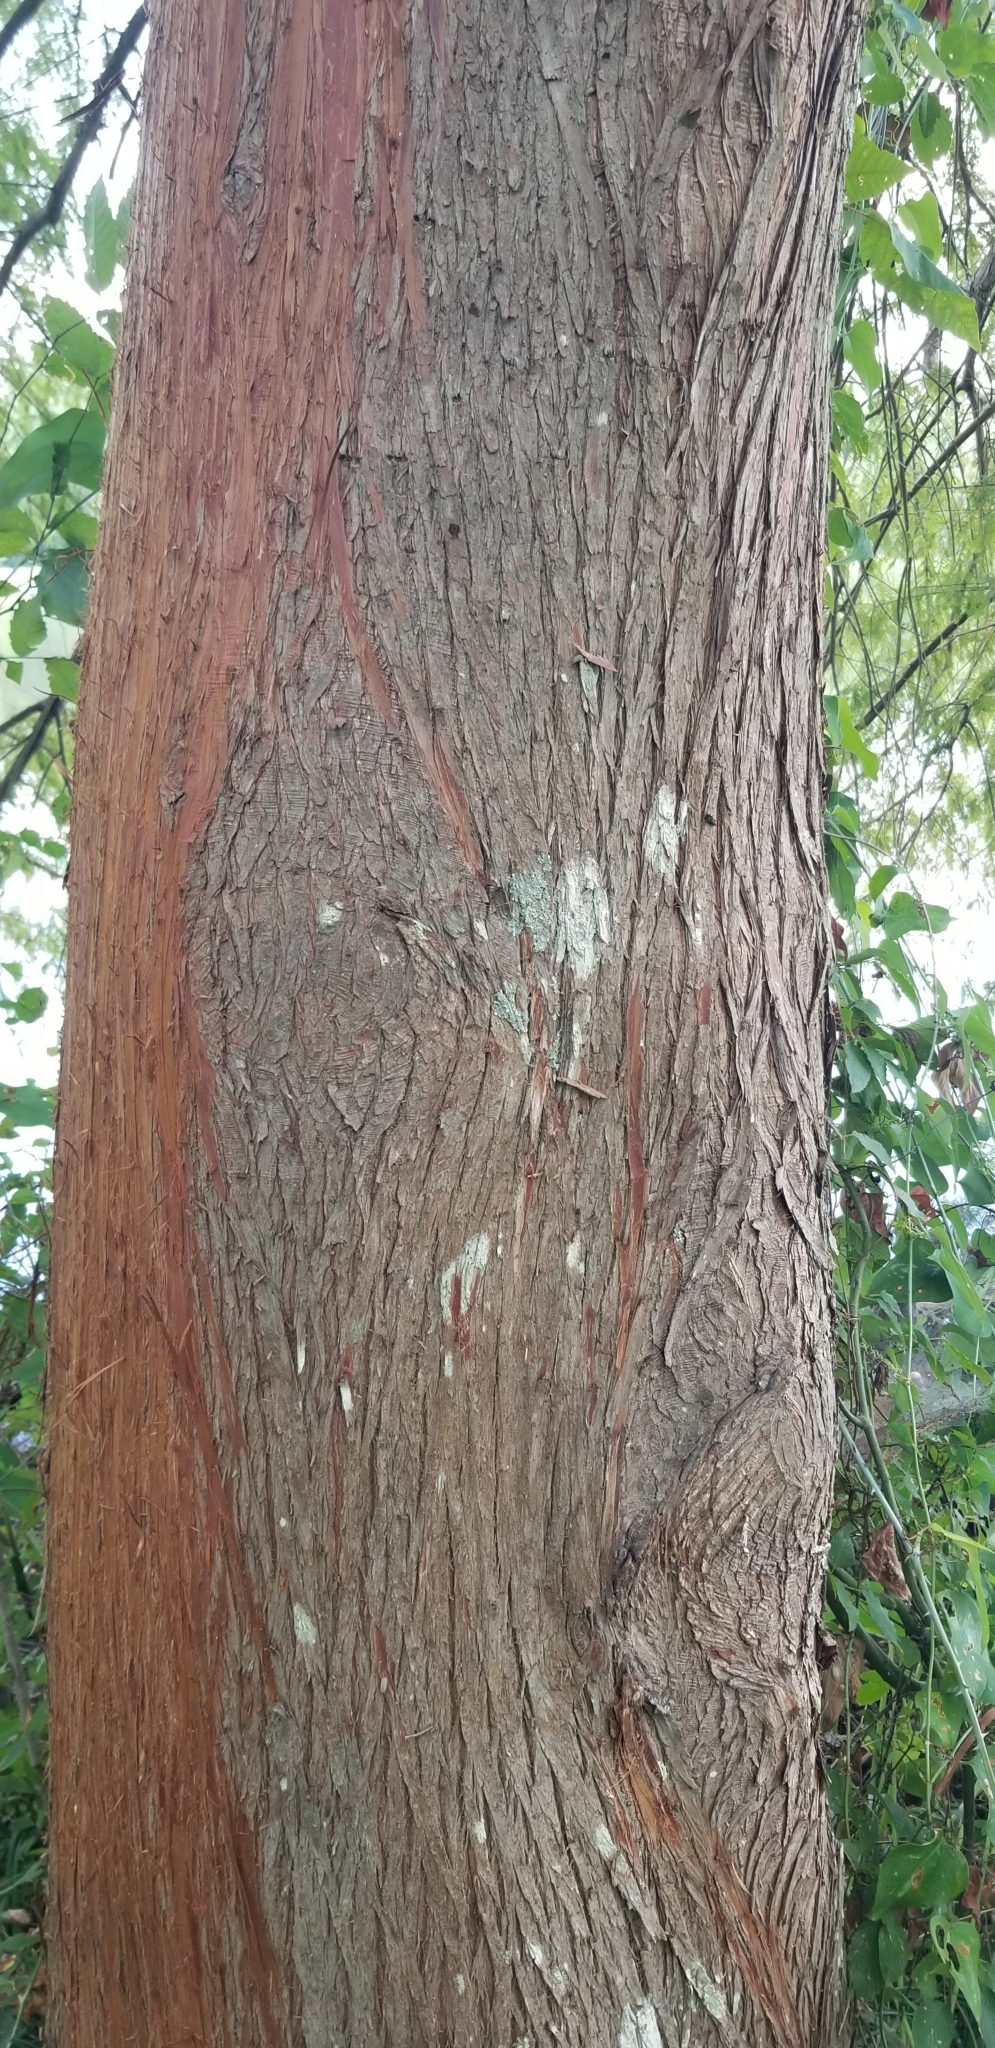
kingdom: Plantae
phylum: Tracheophyta
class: Pinopsida
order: Pinales
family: Cupressaceae
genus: Taxodium
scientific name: Taxodium distichum
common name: Bald cypress
